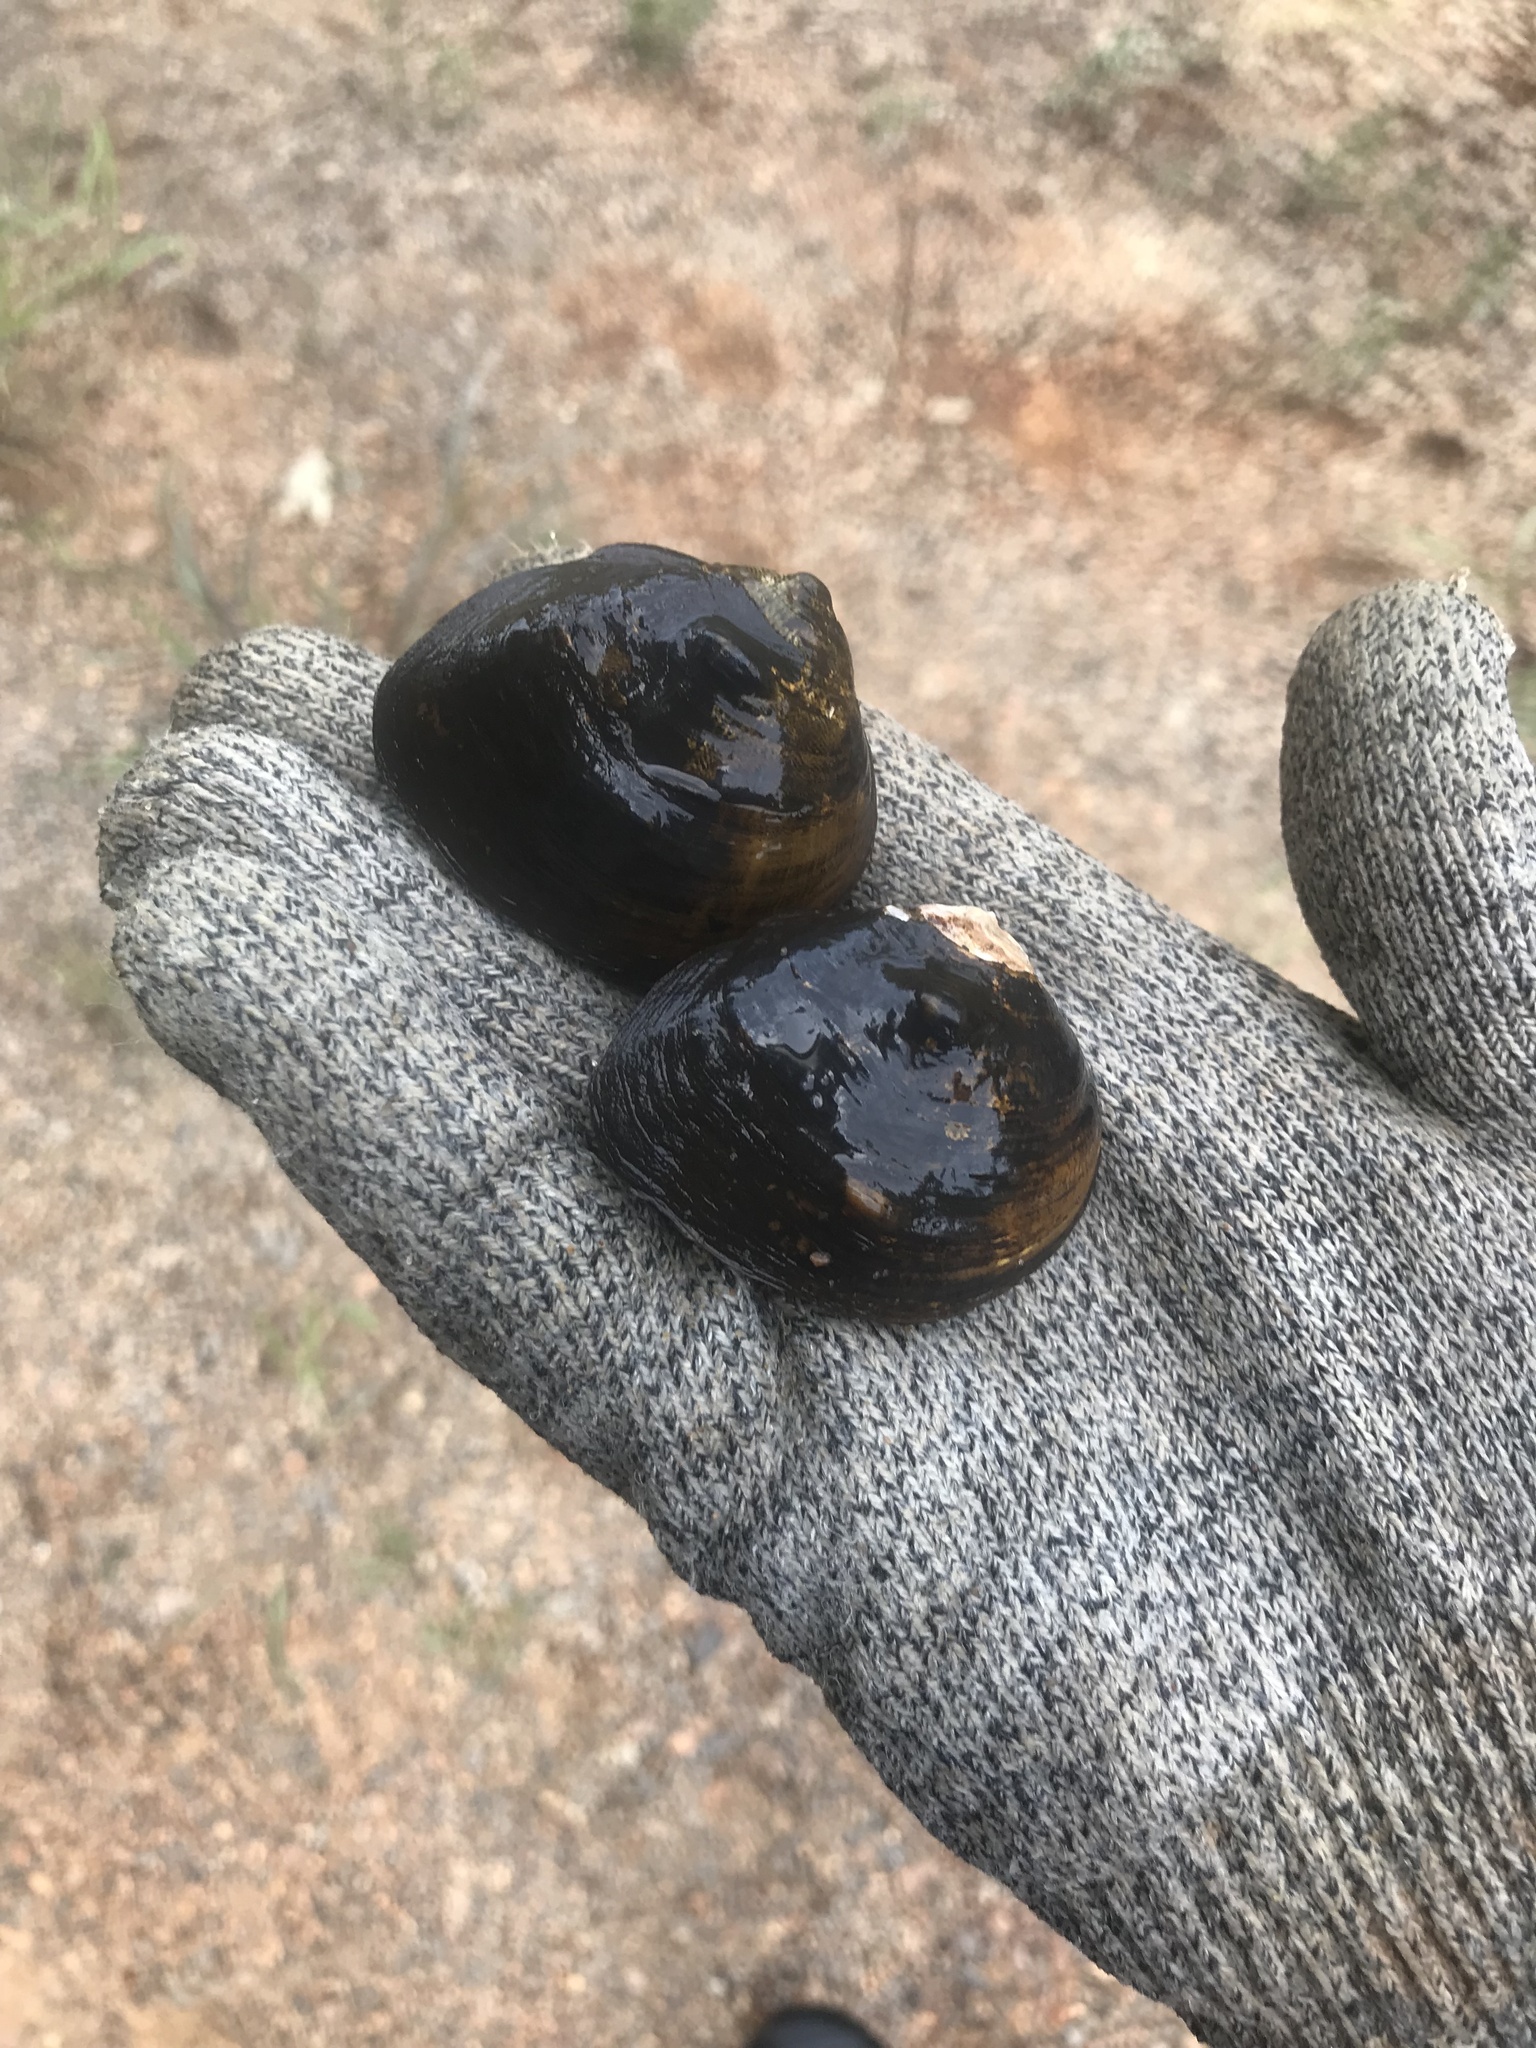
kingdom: Animalia
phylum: Mollusca
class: Bivalvia
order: Unionida
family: Unionidae
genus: Obliquaria
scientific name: Obliquaria reflexa
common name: Threehorn wartyback
